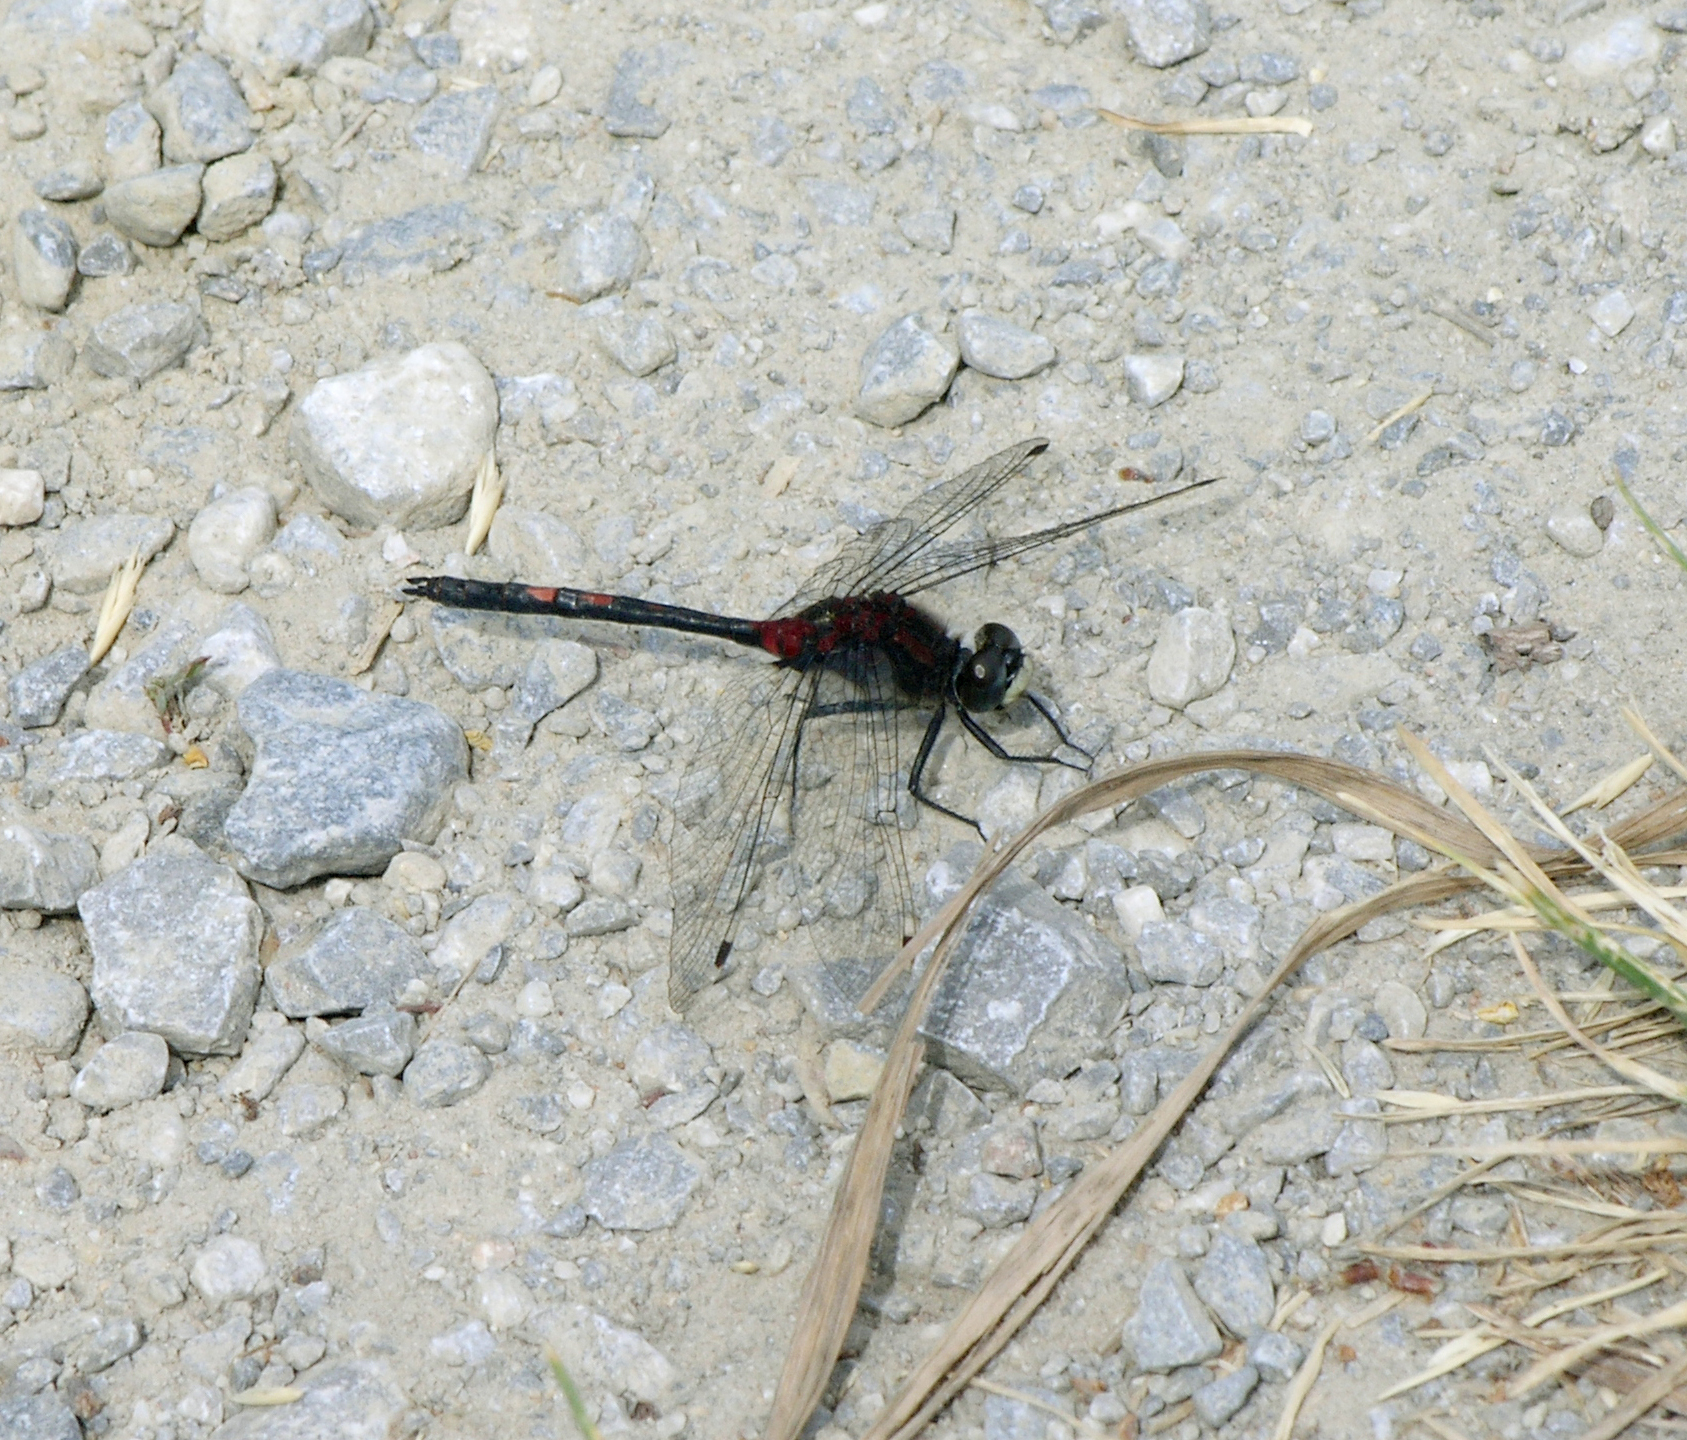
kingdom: Animalia
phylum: Arthropoda
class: Insecta
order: Odonata
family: Libellulidae
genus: Leucorrhinia
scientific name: Leucorrhinia dubia
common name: White-faced darter
